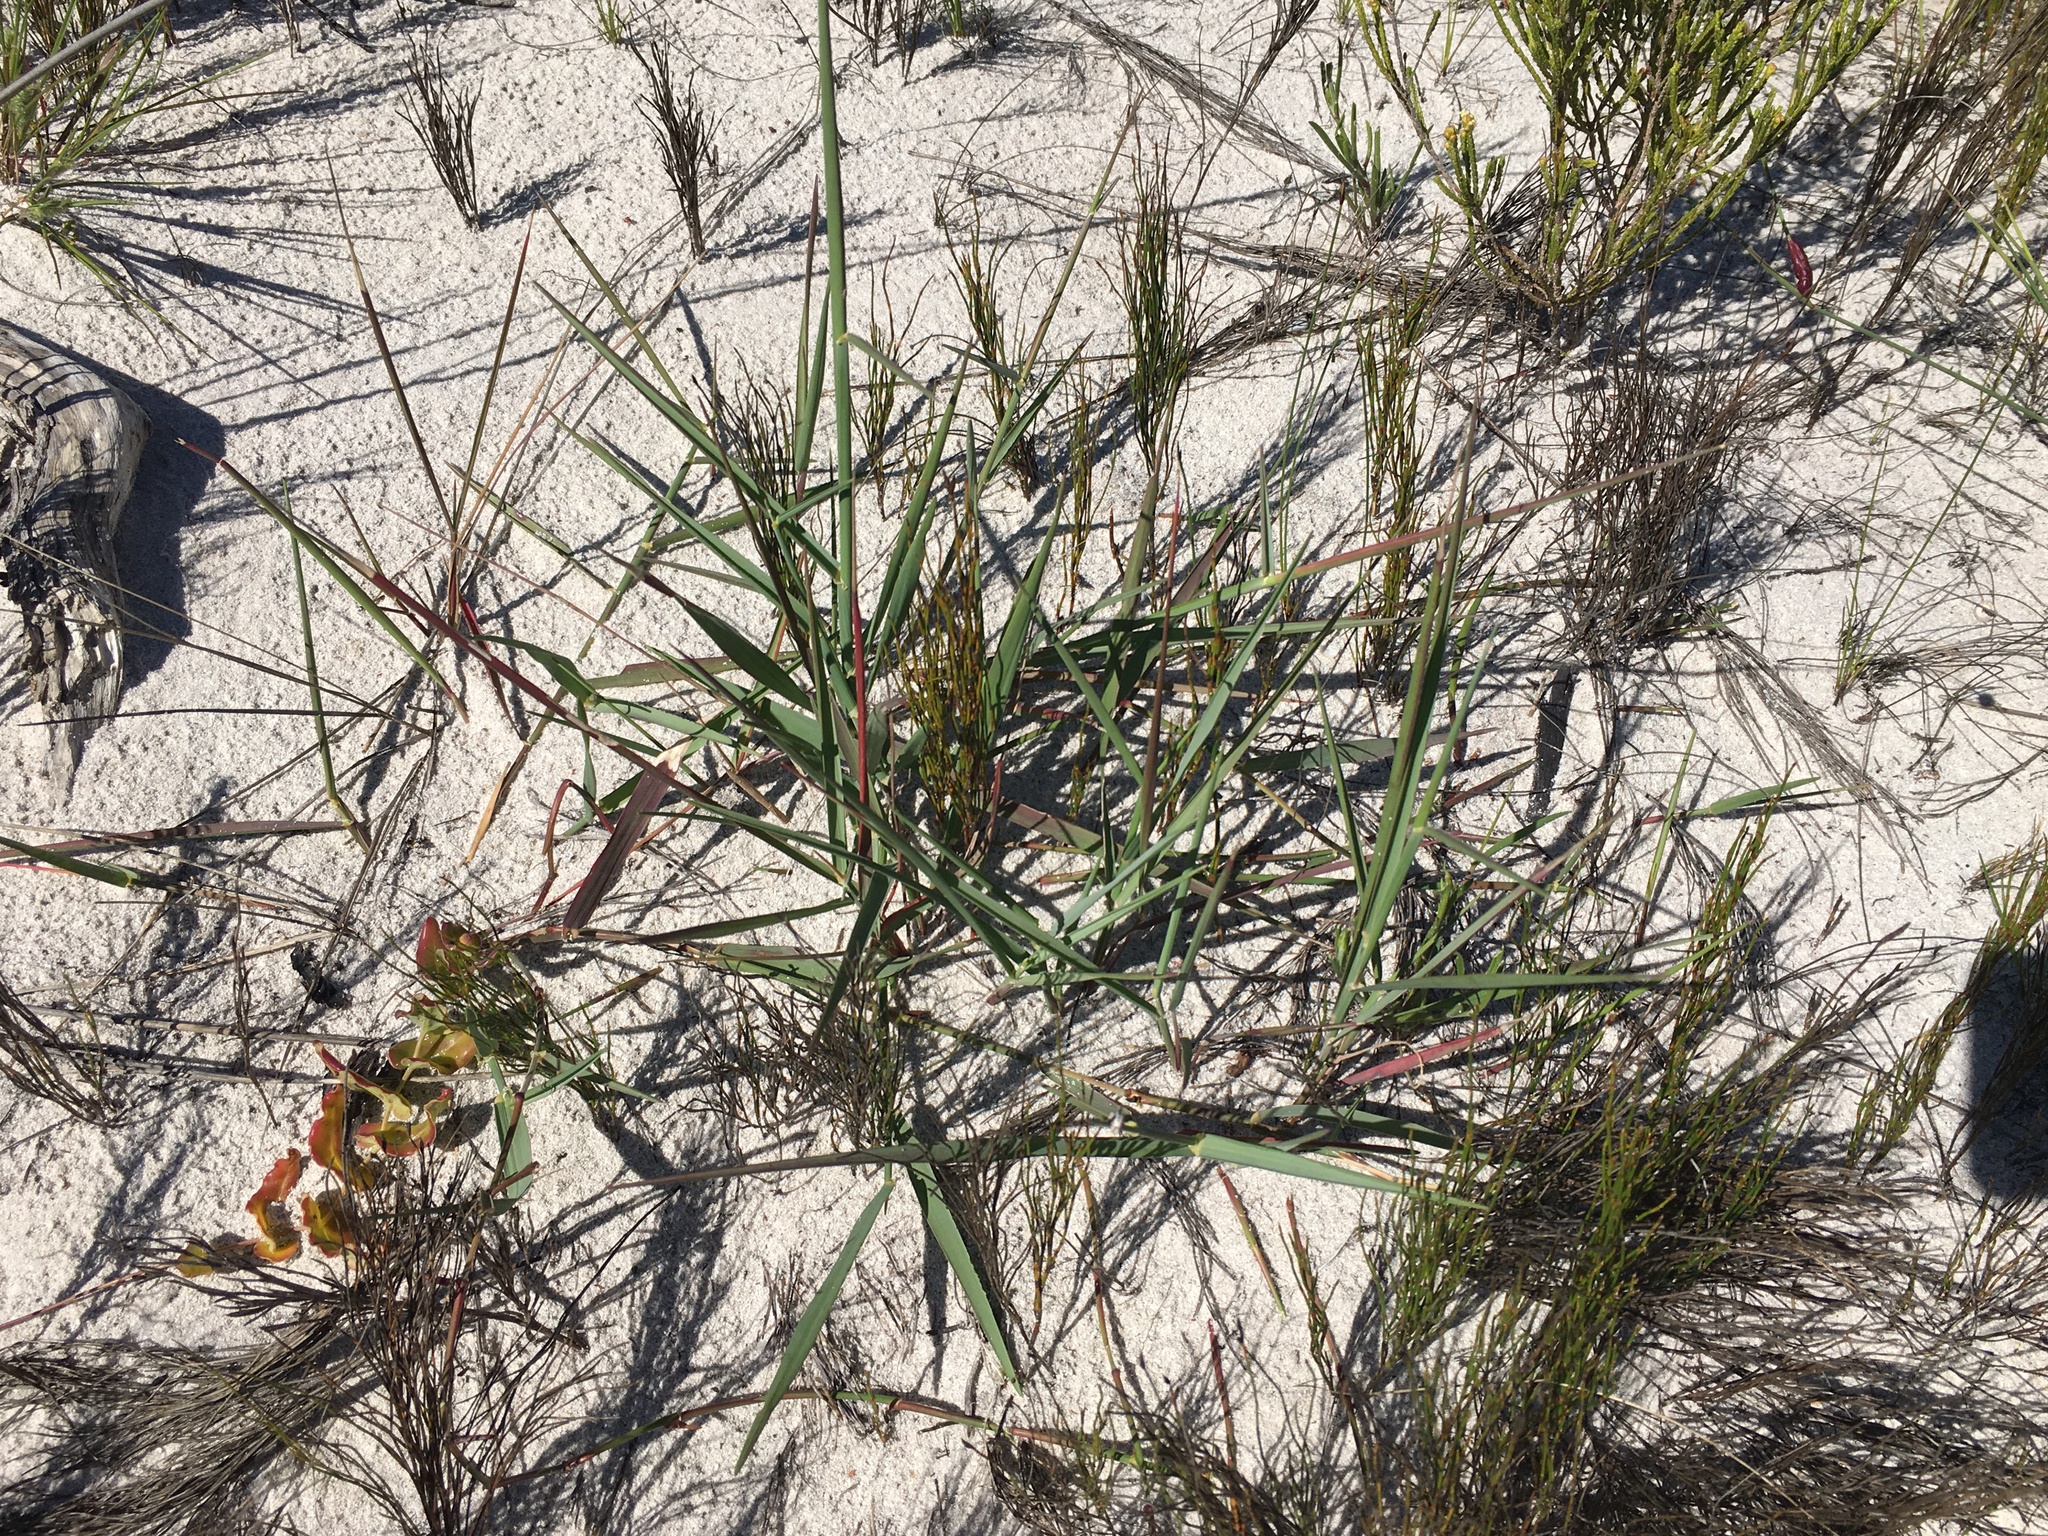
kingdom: Plantae
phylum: Tracheophyta
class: Liliopsida
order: Poales
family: Poaceae
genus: Sporobolus
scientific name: Sporobolus virginicus
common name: Beach dropseed
